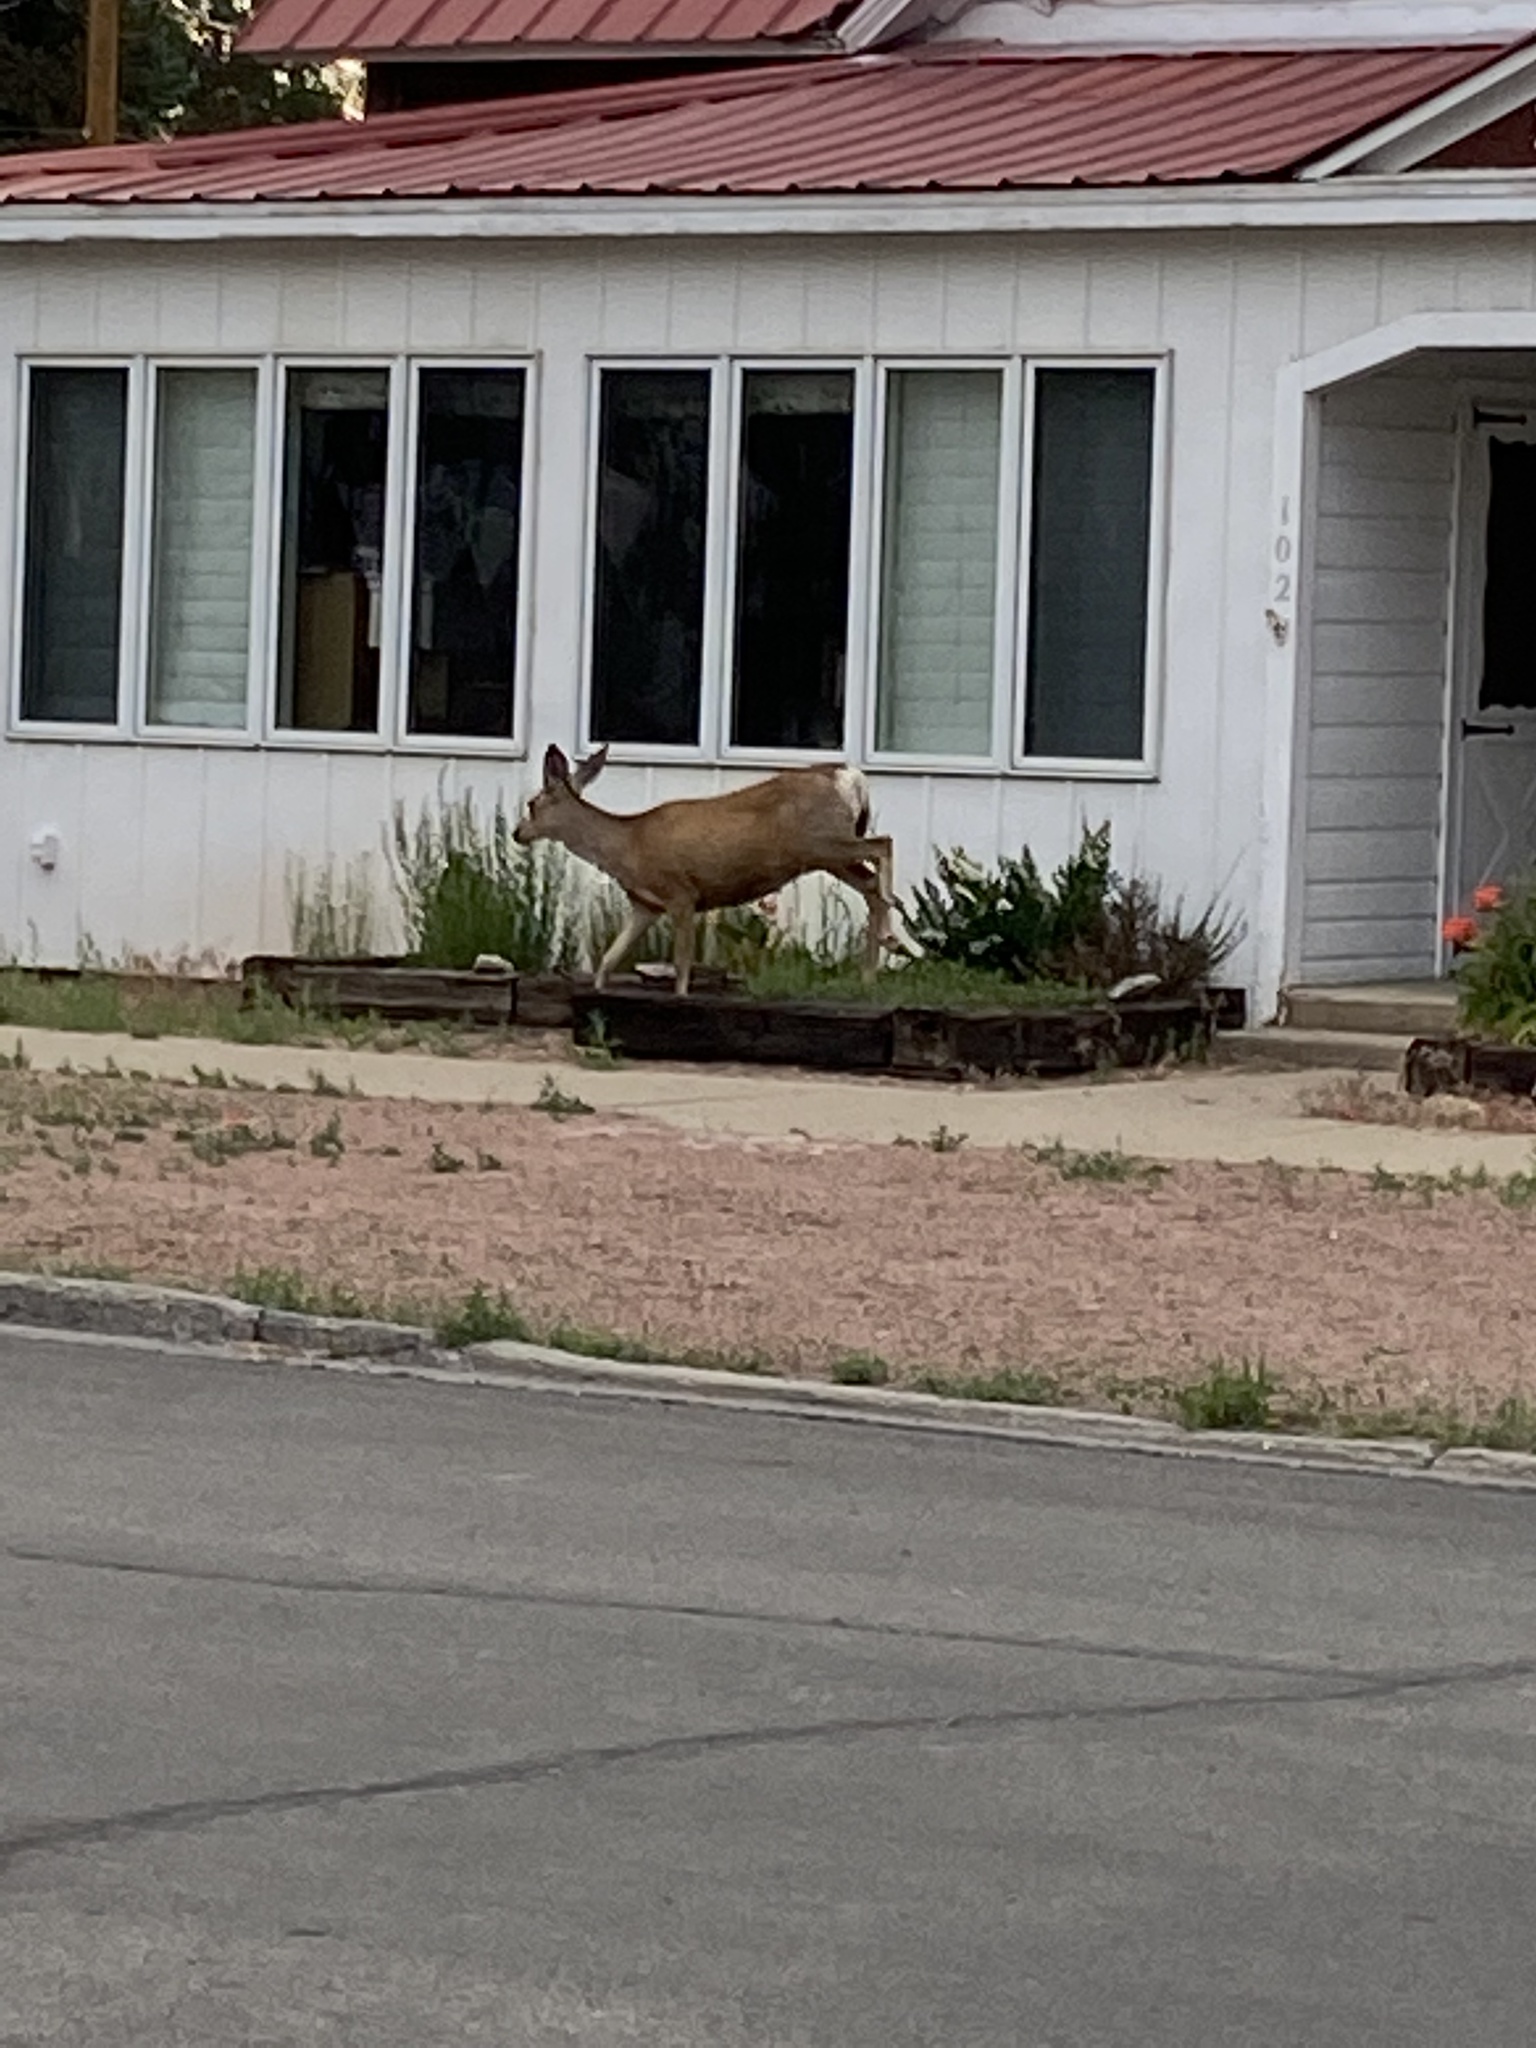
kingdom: Animalia
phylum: Chordata
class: Mammalia
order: Artiodactyla
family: Cervidae
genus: Odocoileus
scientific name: Odocoileus hemionus
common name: Mule deer
